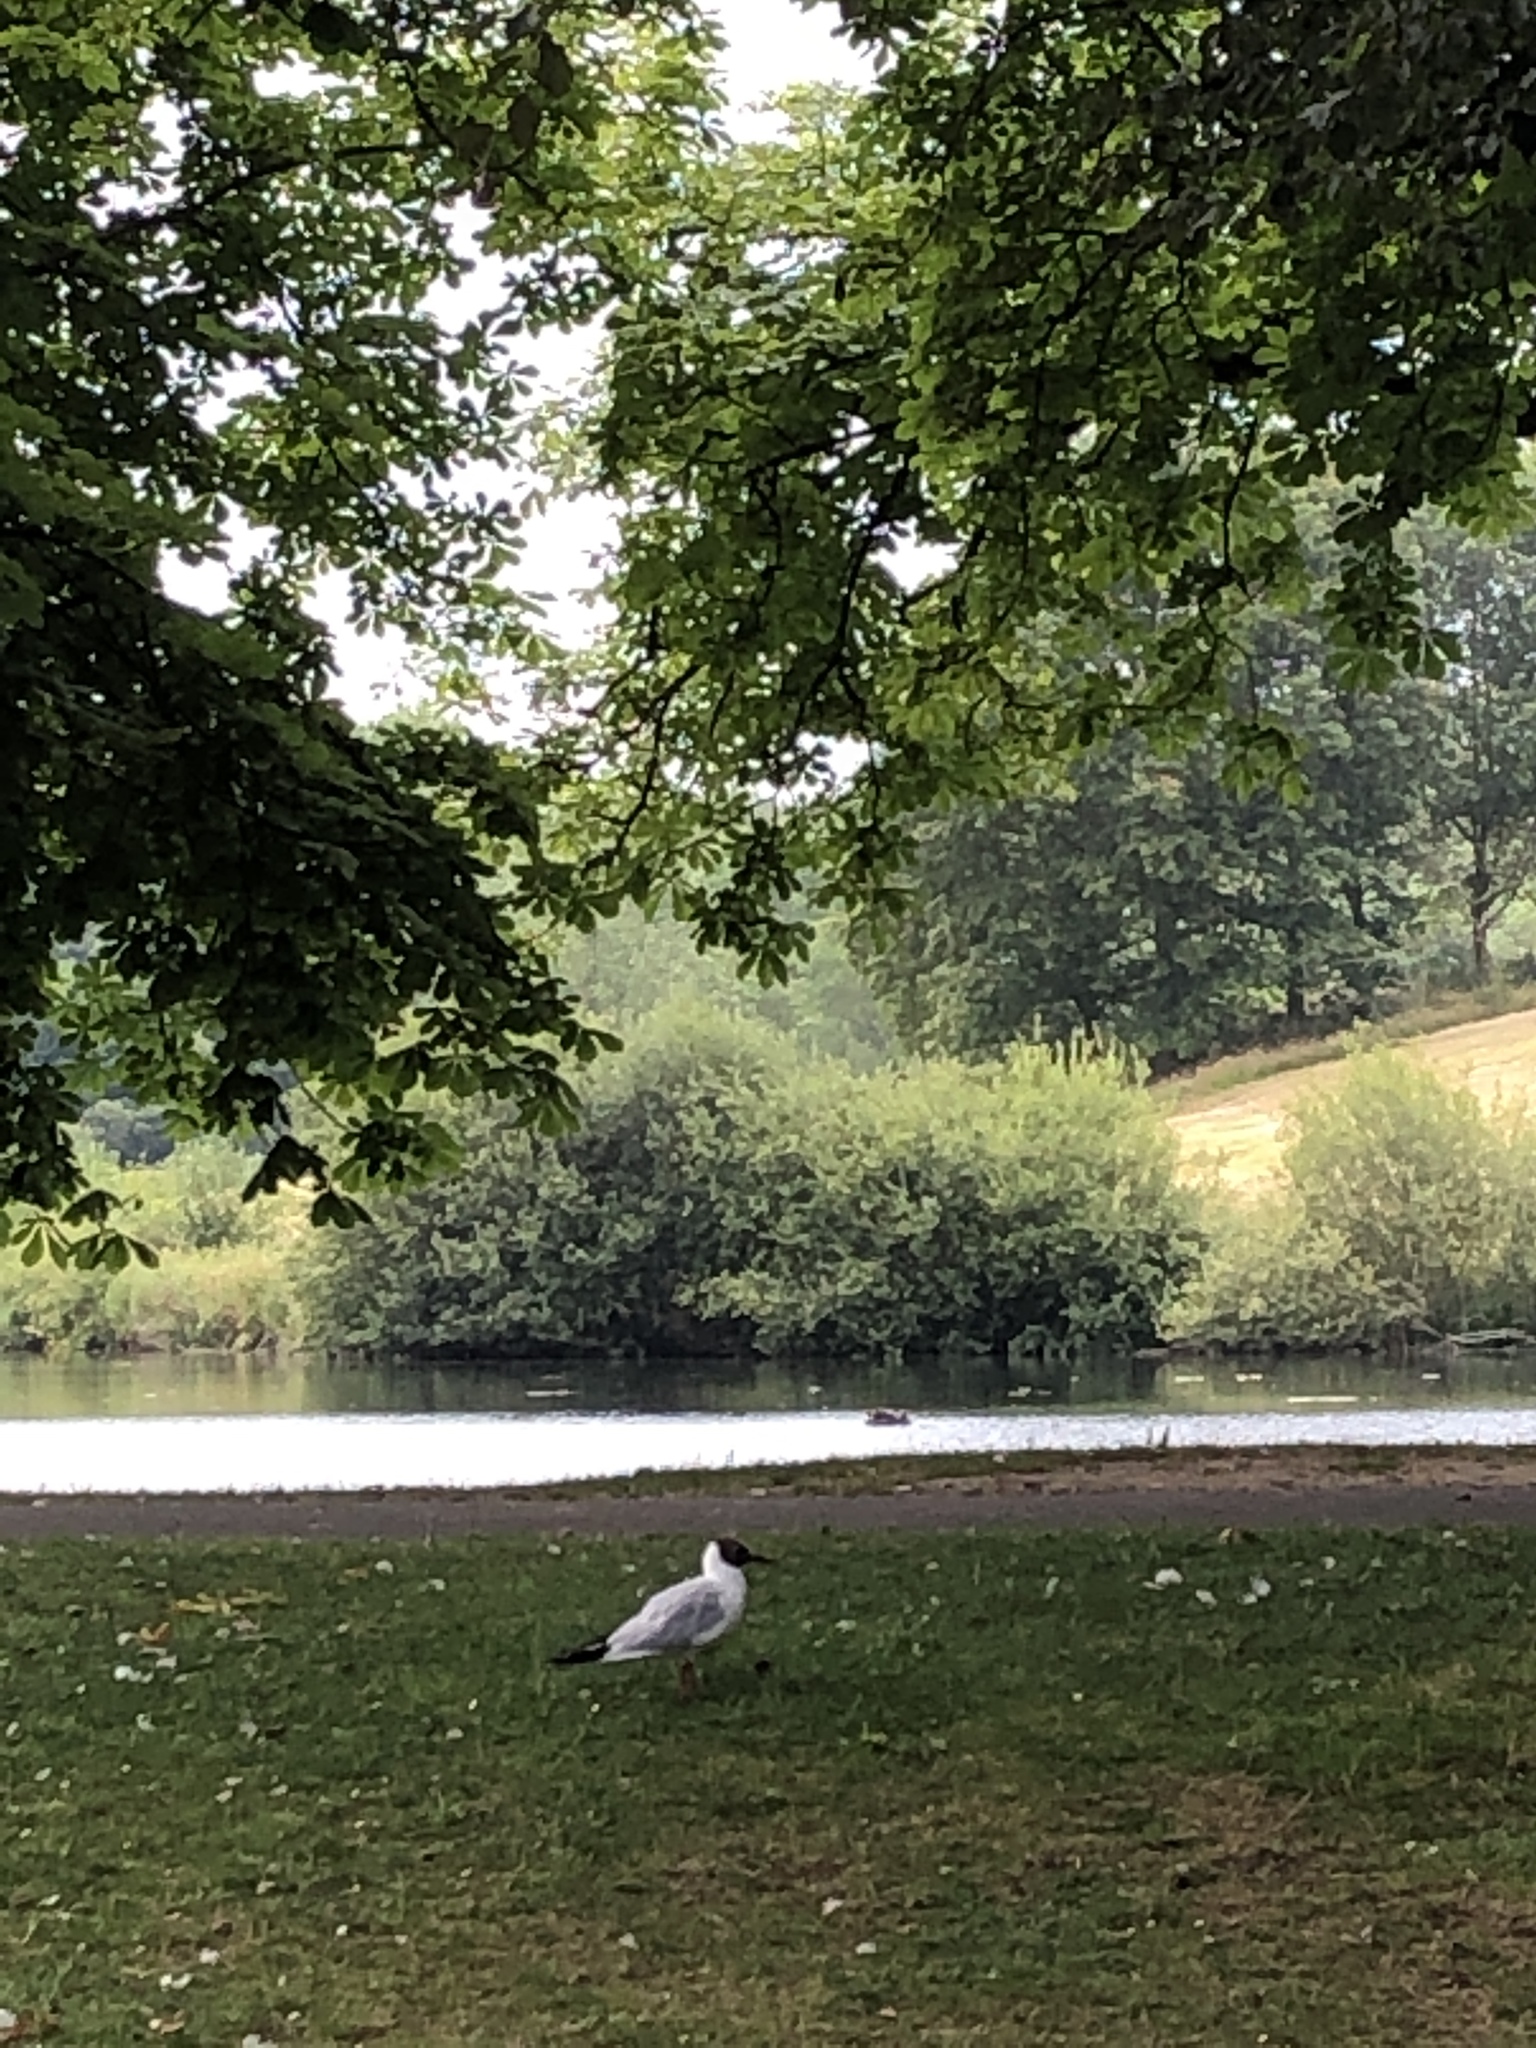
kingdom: Animalia
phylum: Chordata
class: Aves
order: Charadriiformes
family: Laridae
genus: Chroicocephalus
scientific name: Chroicocephalus ridibundus
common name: Black-headed gull
